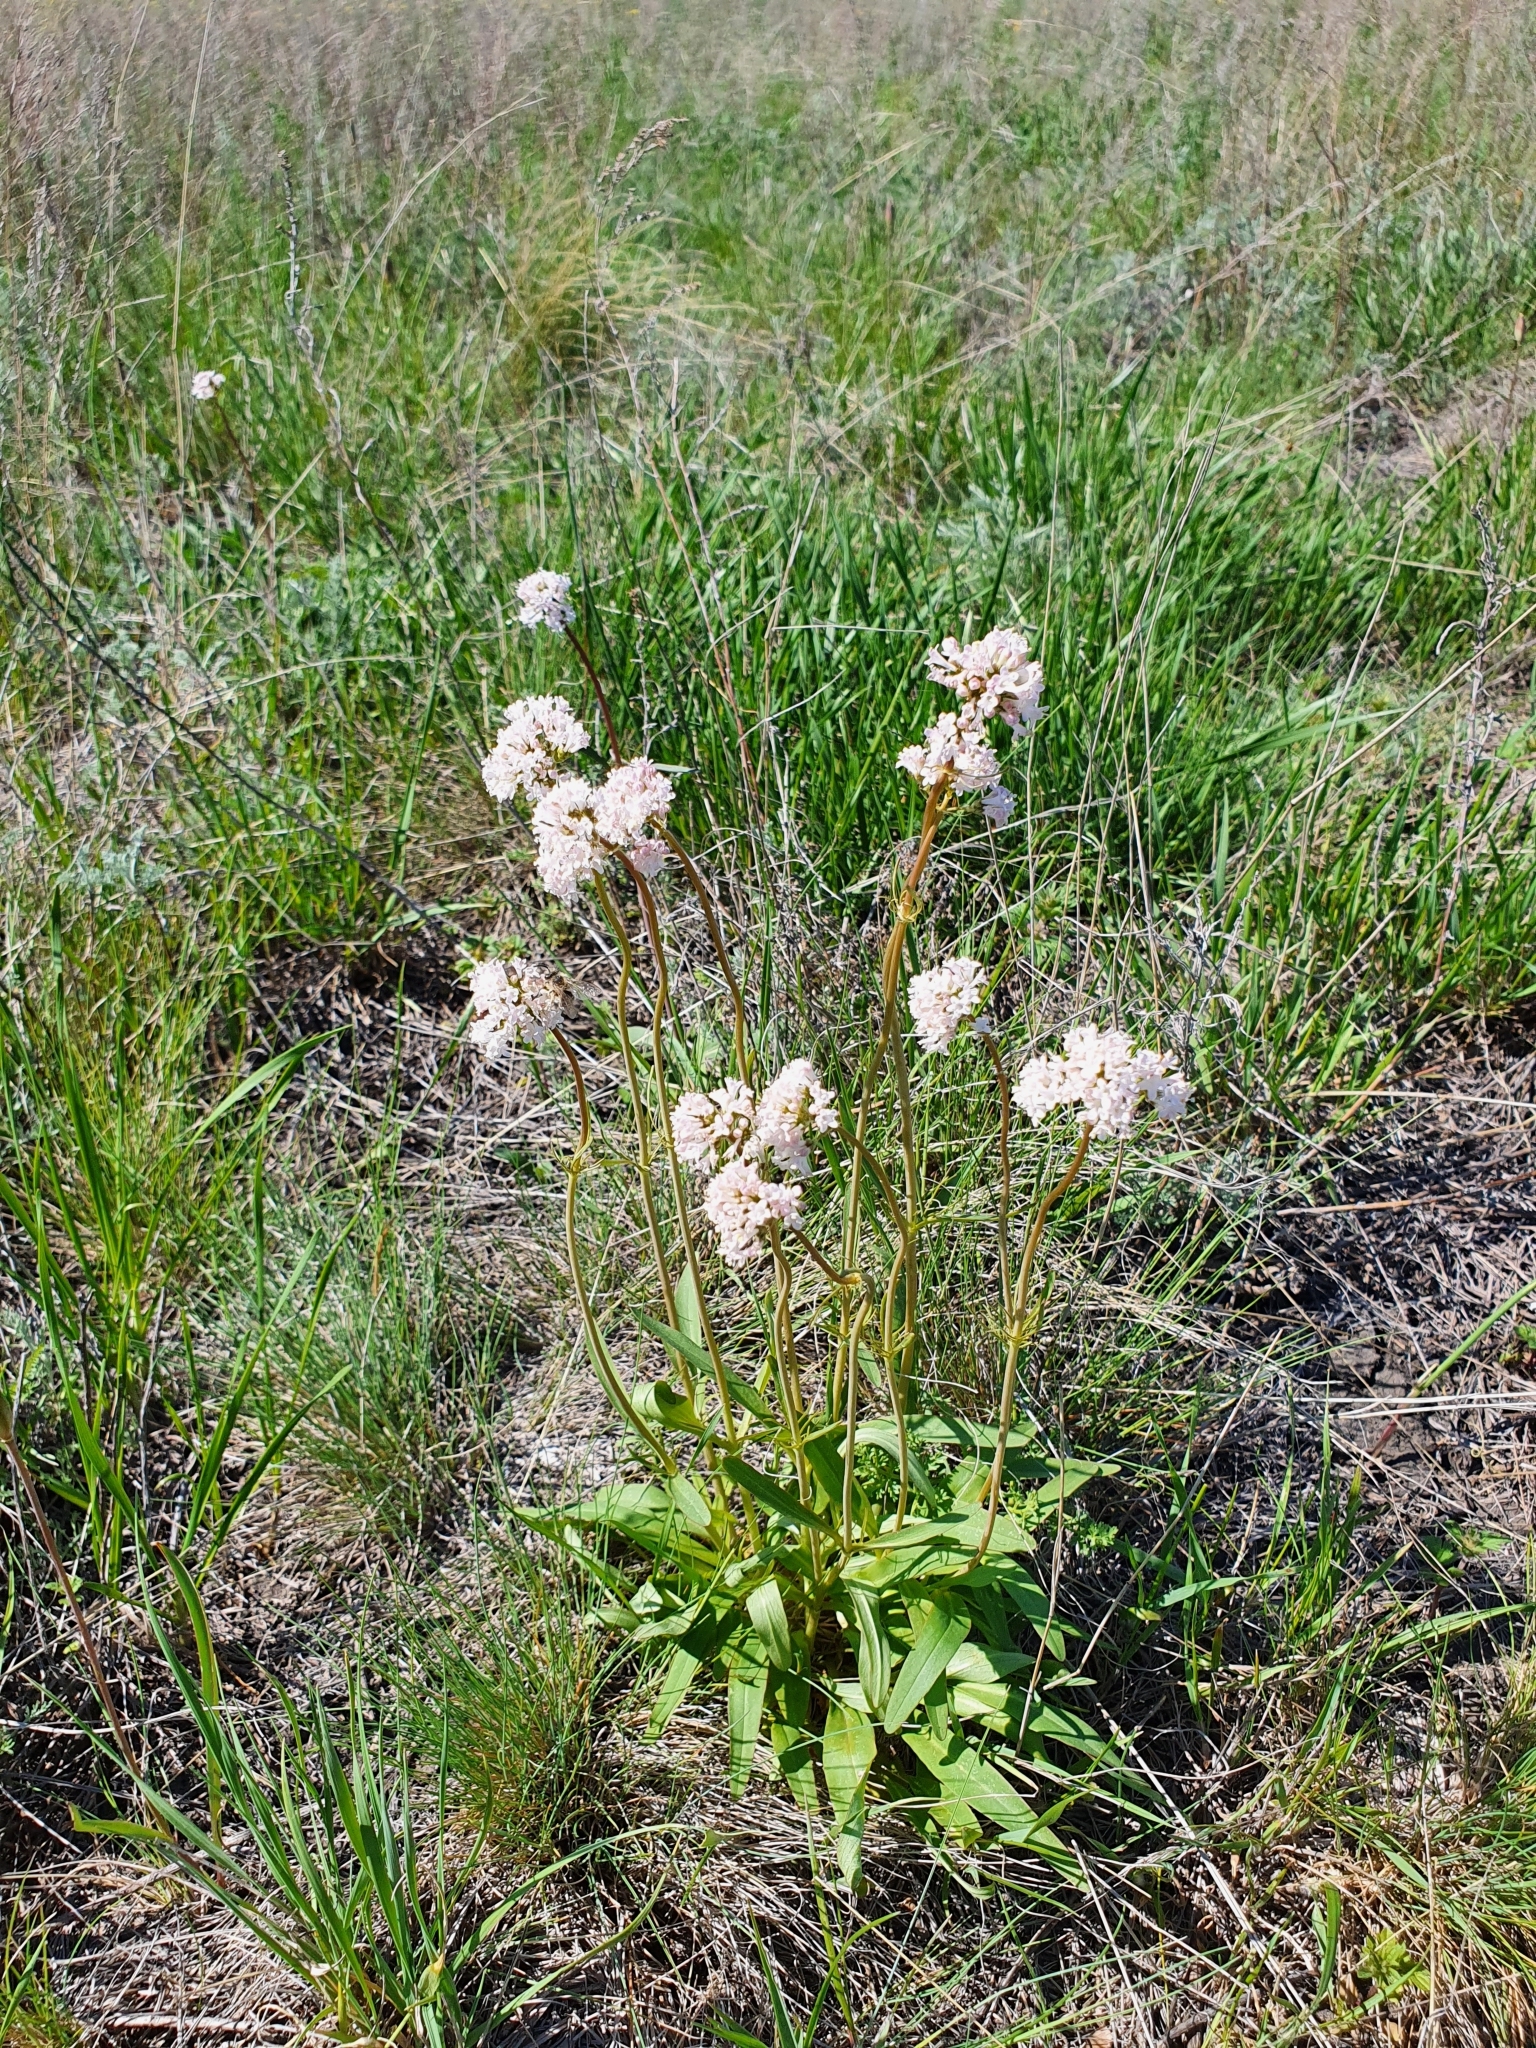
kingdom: Plantae
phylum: Tracheophyta
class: Magnoliopsida
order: Dipsacales
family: Caprifoliaceae
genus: Valeriana
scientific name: Valeriana tuberosa
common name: Tuberous valerian
